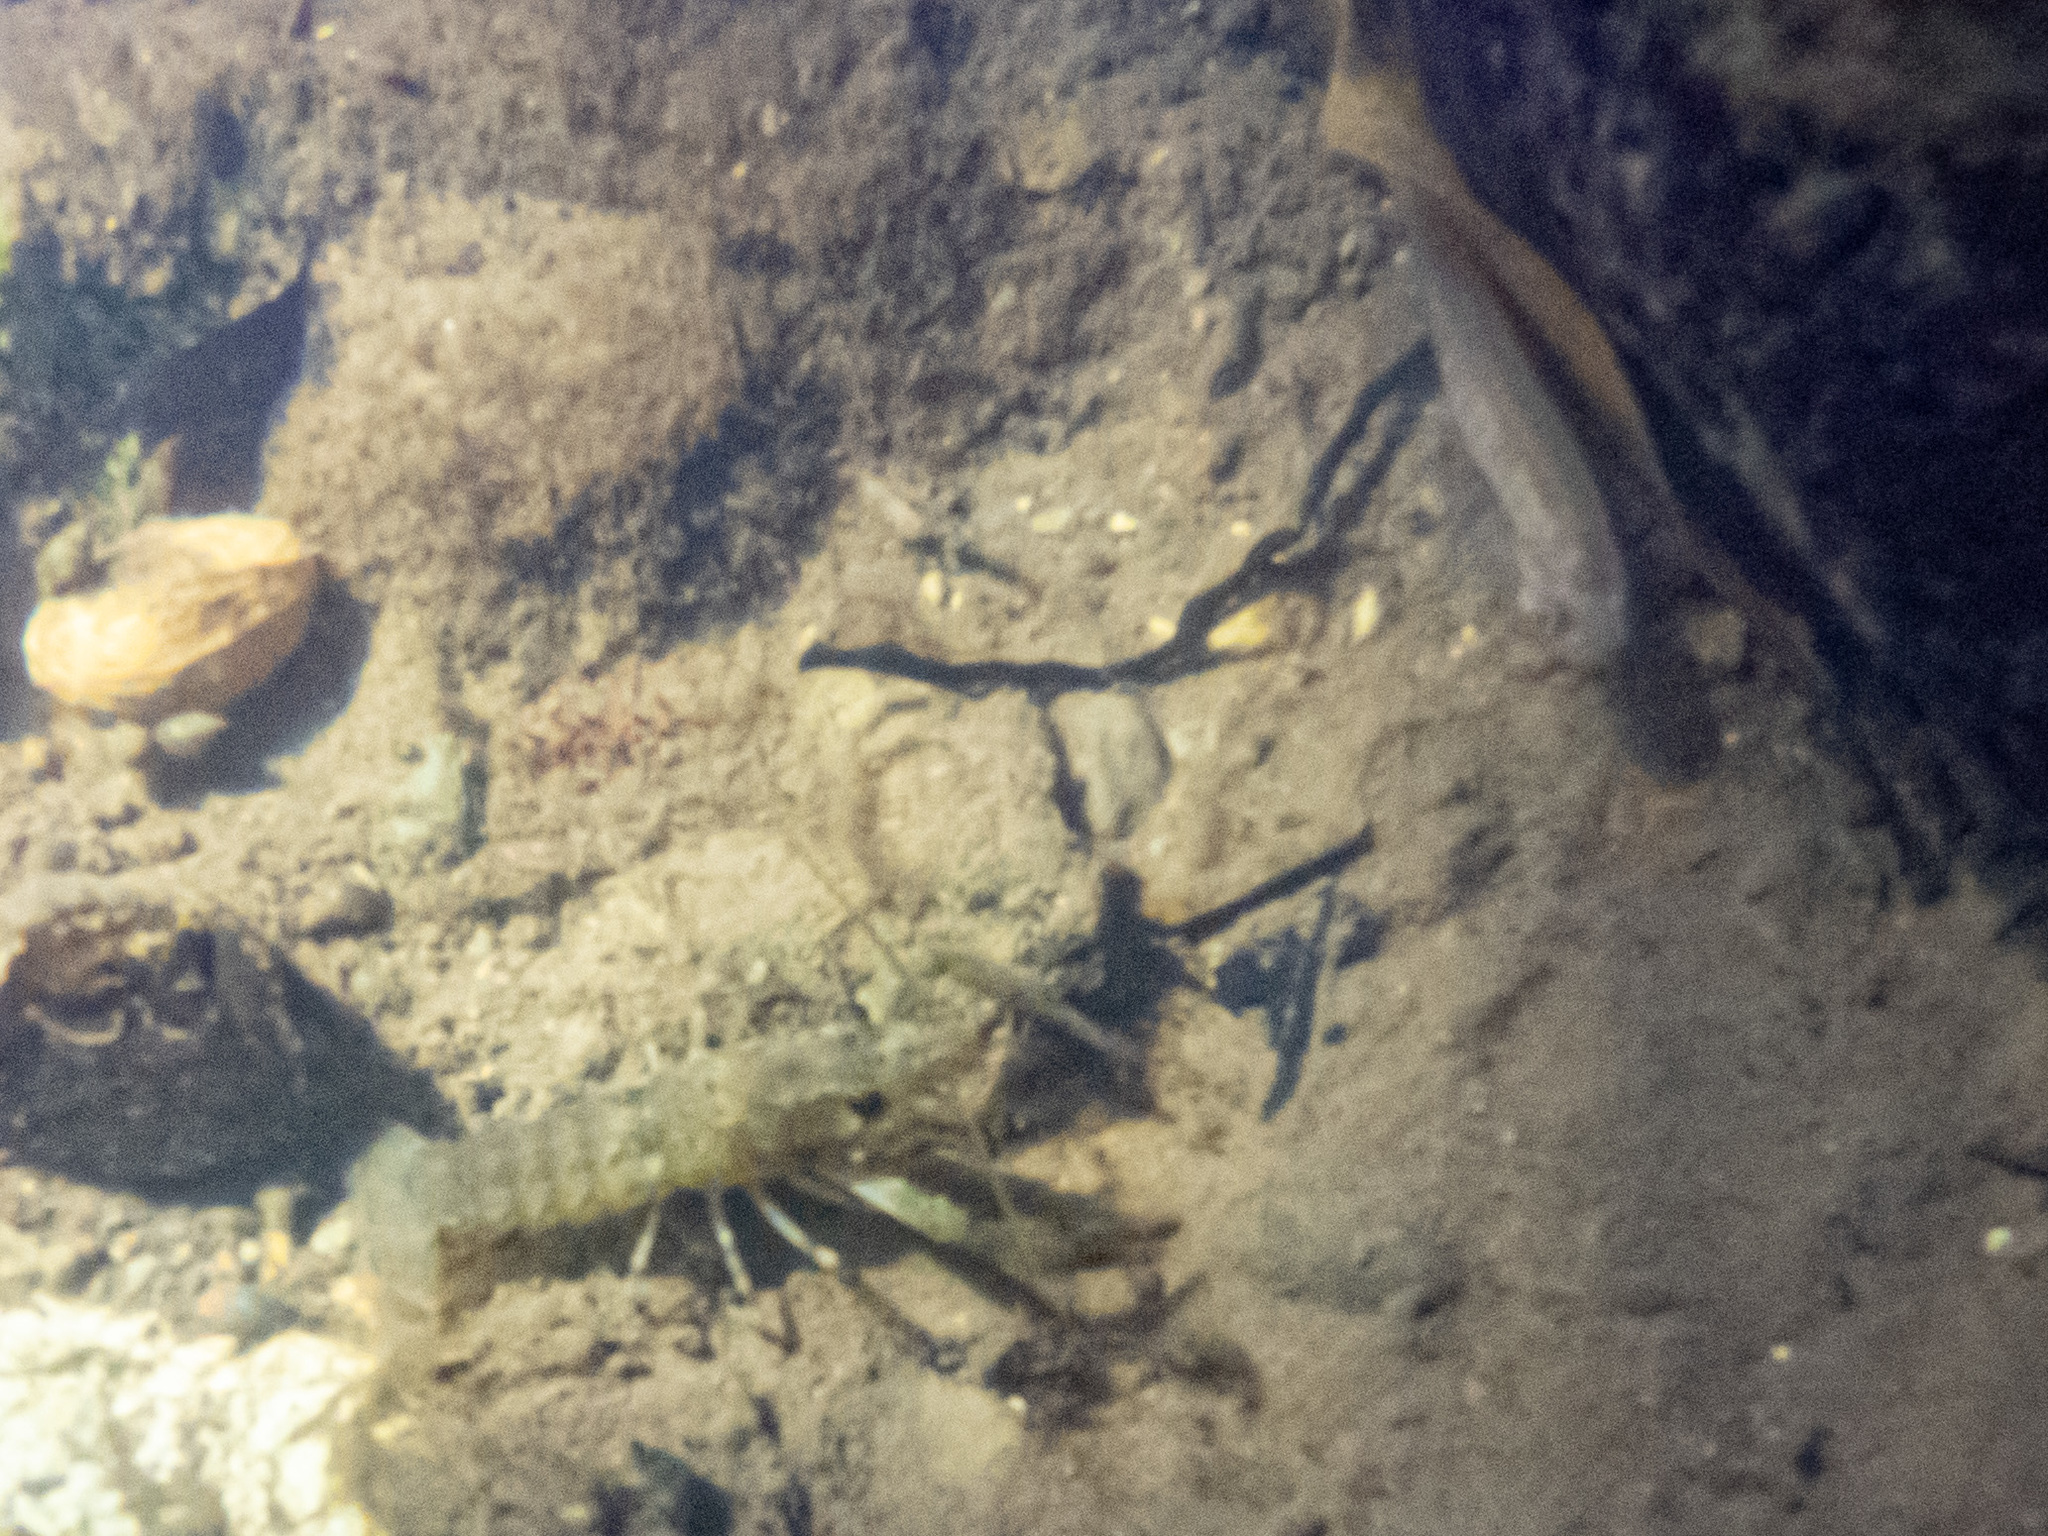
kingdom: Animalia
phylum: Arthropoda
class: Malacostraca
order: Decapoda
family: Parastacidae
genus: Paranephrops
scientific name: Paranephrops planifrons
